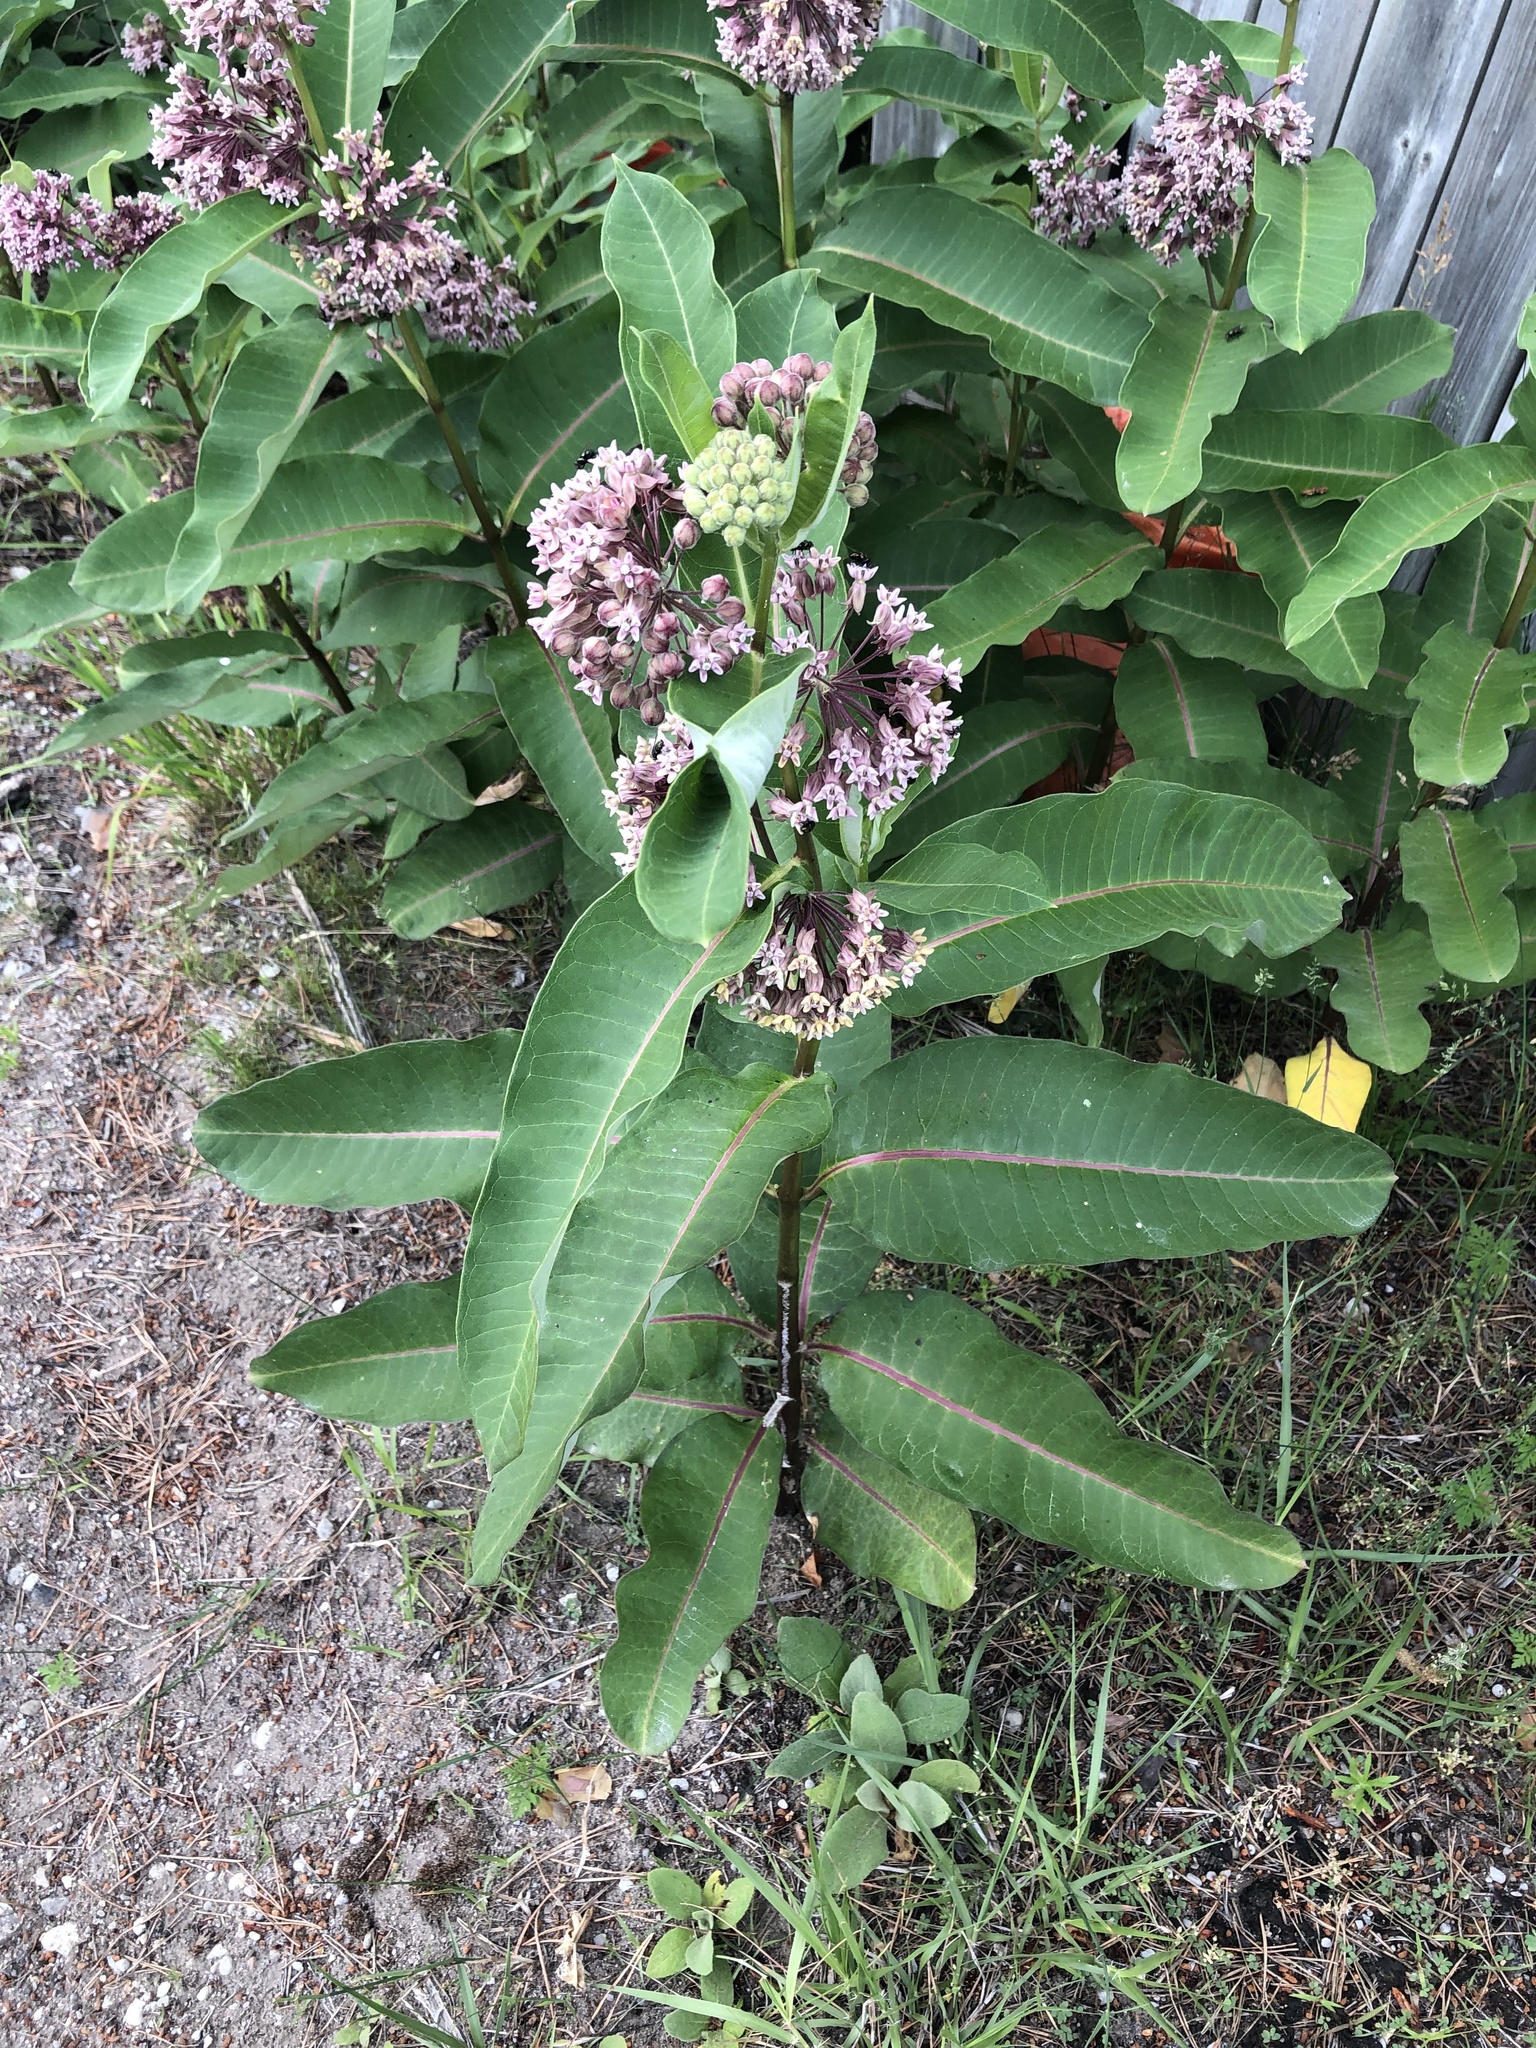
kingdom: Plantae
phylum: Tracheophyta
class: Magnoliopsida
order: Gentianales
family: Apocynaceae
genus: Asclepias
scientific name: Asclepias syriaca
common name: Common milkweed
